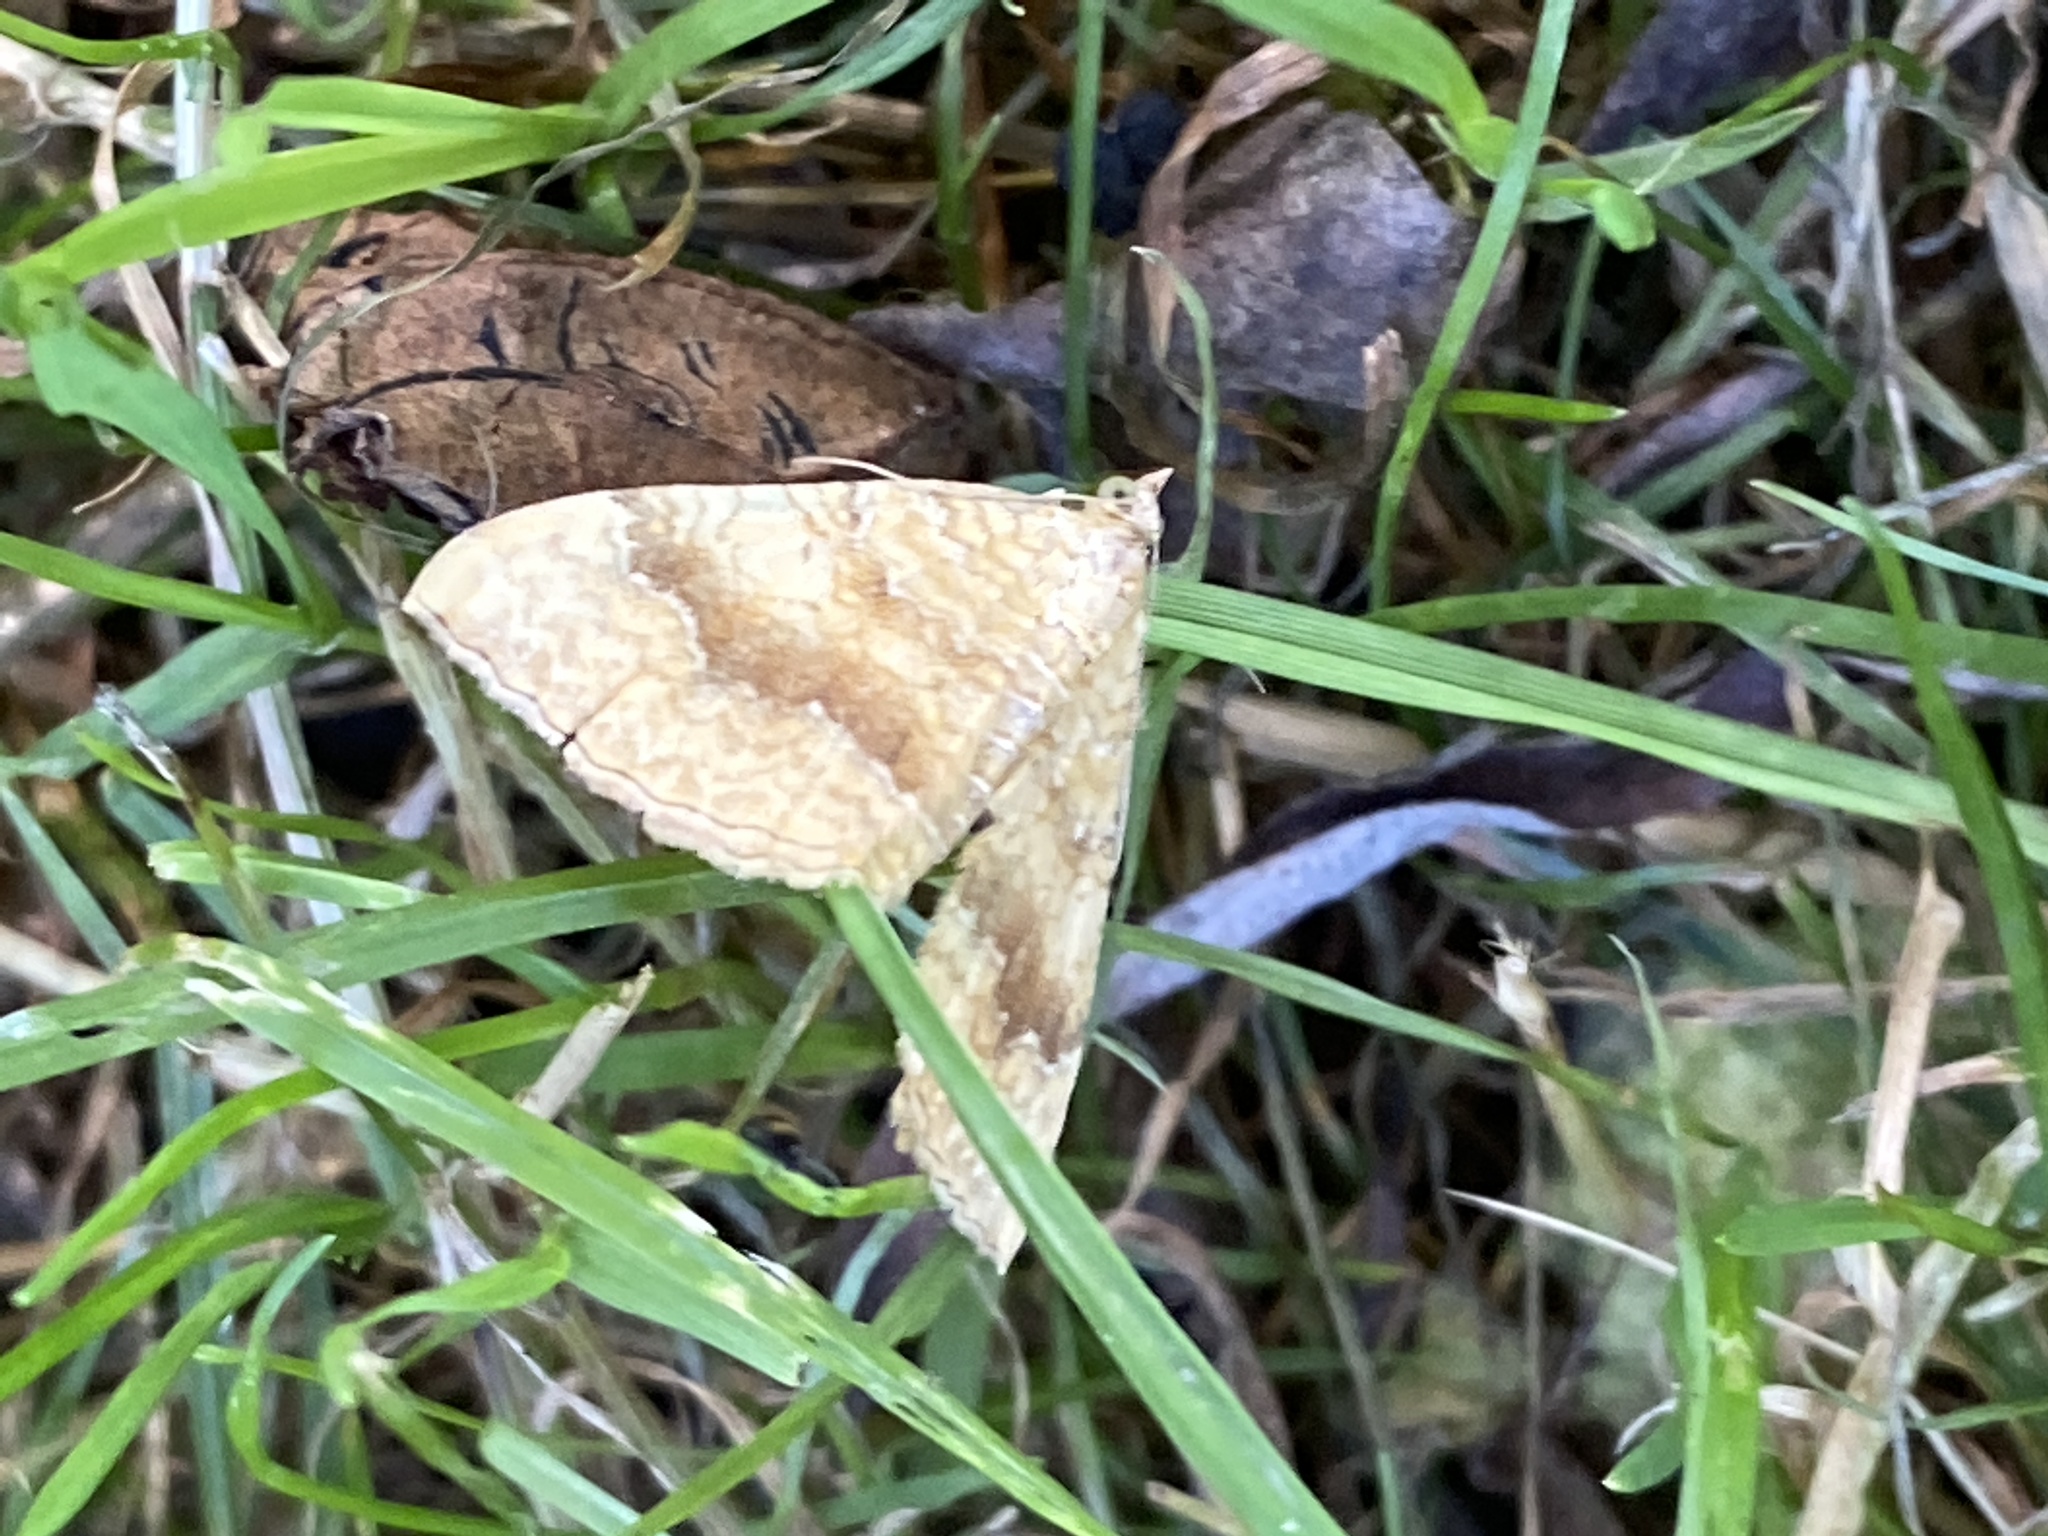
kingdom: Animalia
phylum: Arthropoda
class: Insecta
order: Lepidoptera
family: Geometridae
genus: Camptogramma
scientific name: Camptogramma bilineata
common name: Yellow shell
